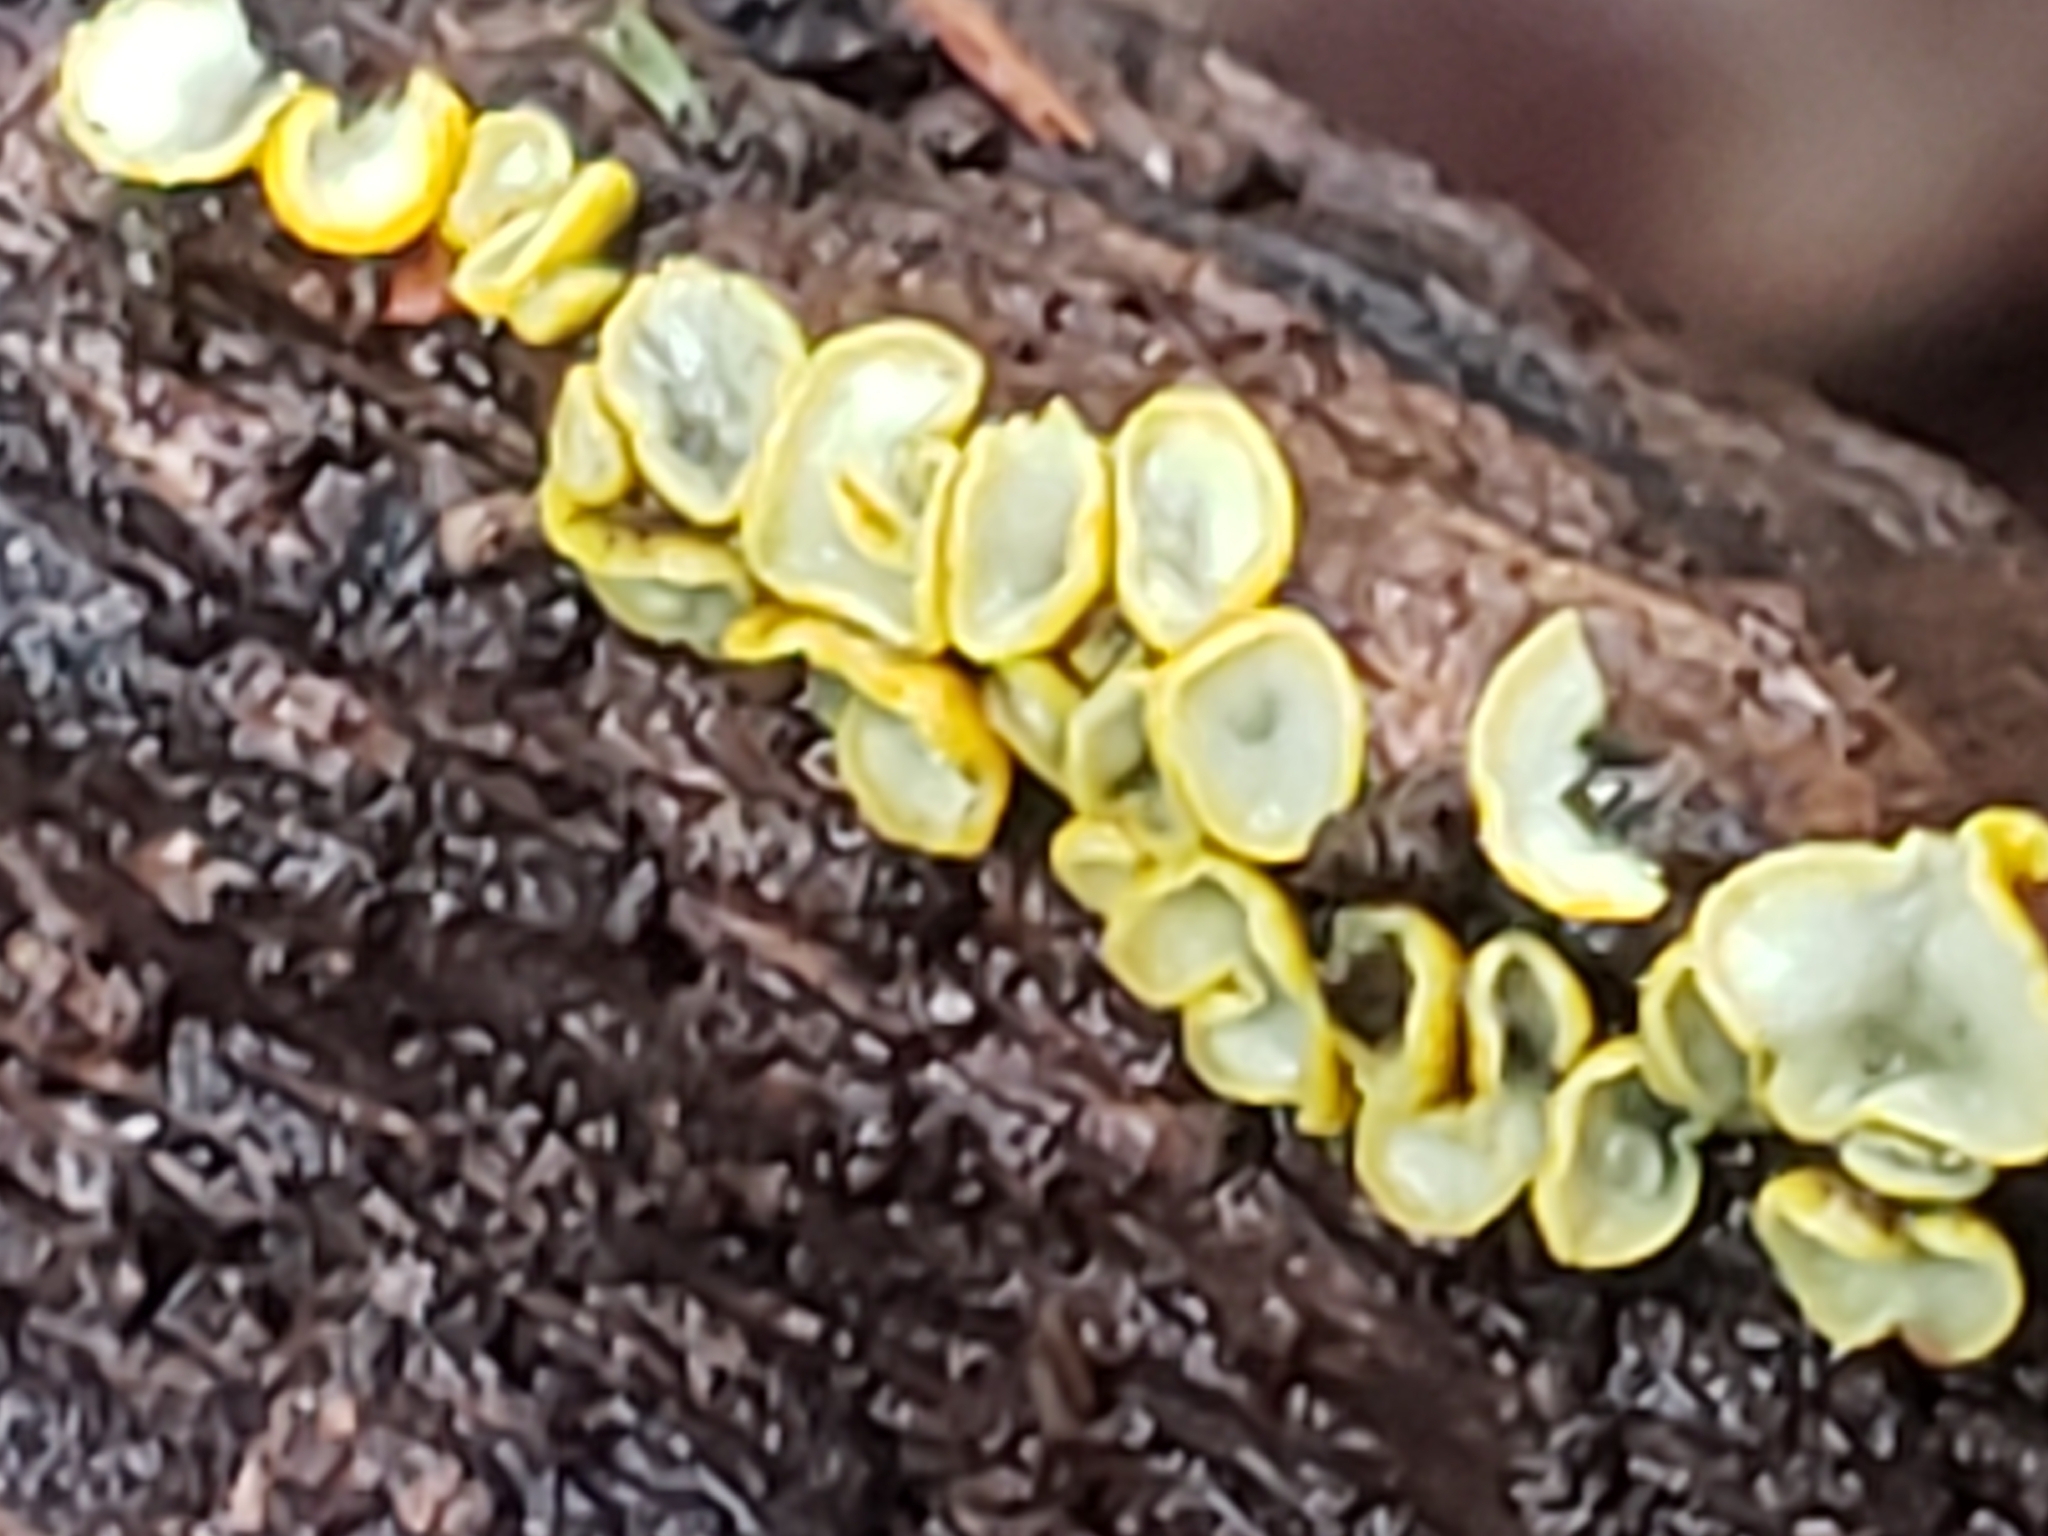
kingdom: Fungi
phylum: Ascomycota
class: Leotiomycetes
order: Helotiales
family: Chlorospleniaceae
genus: Chlorosplenium
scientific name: Chlorosplenium chlora
